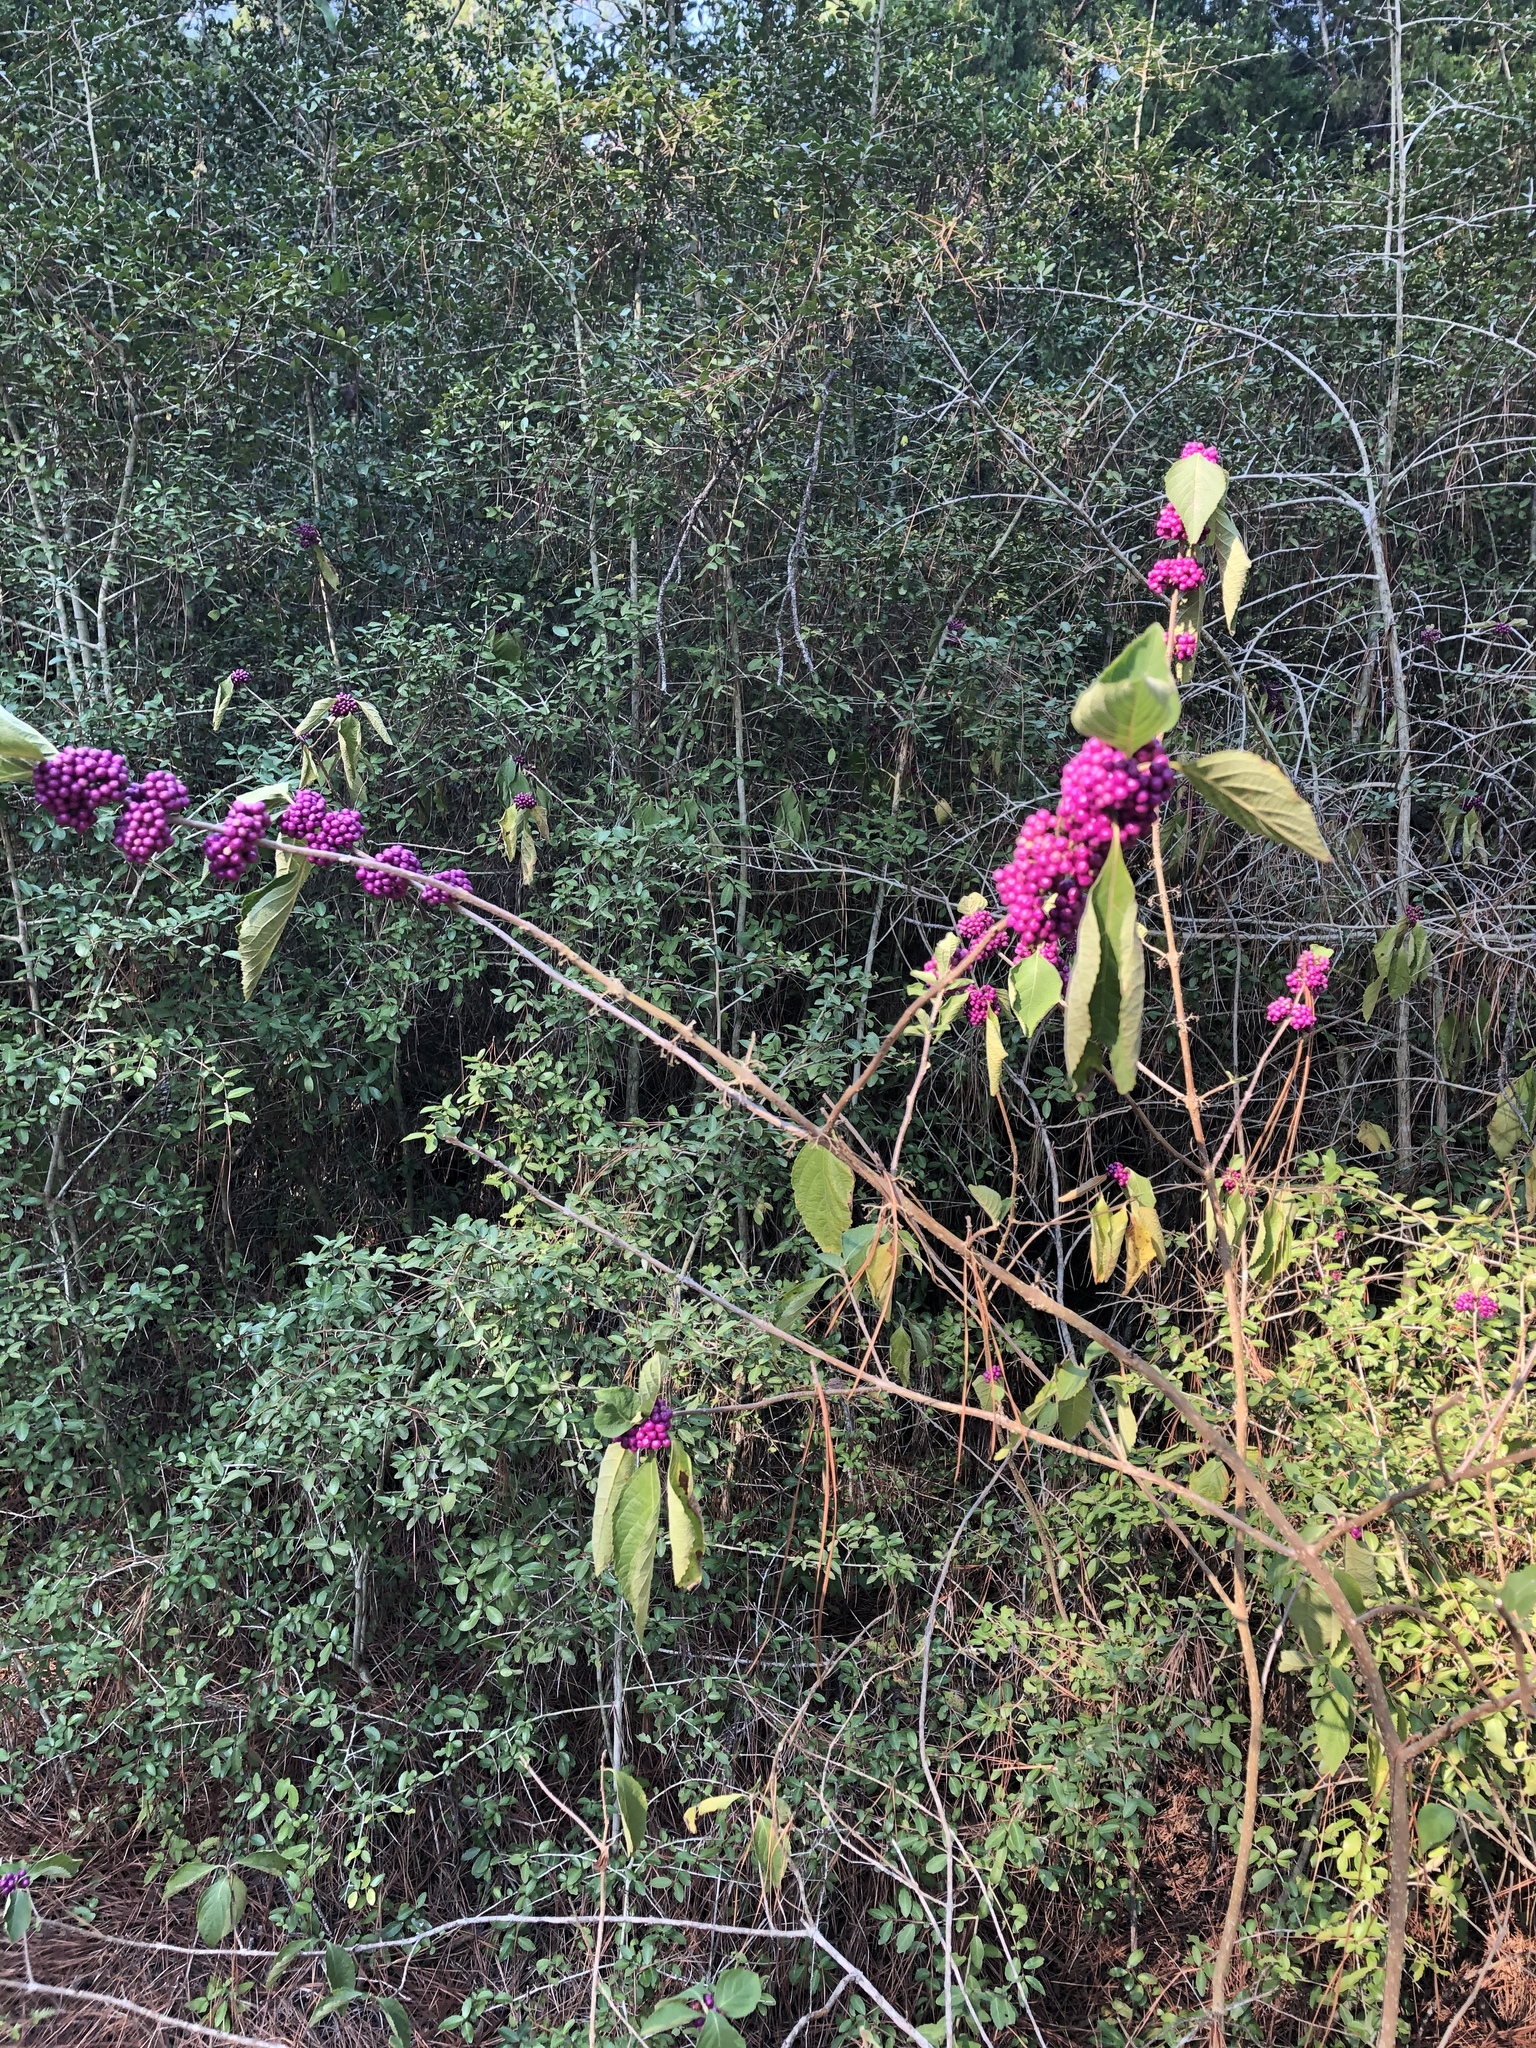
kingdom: Plantae
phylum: Tracheophyta
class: Magnoliopsida
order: Lamiales
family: Lamiaceae
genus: Callicarpa
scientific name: Callicarpa americana
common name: American beautyberry
